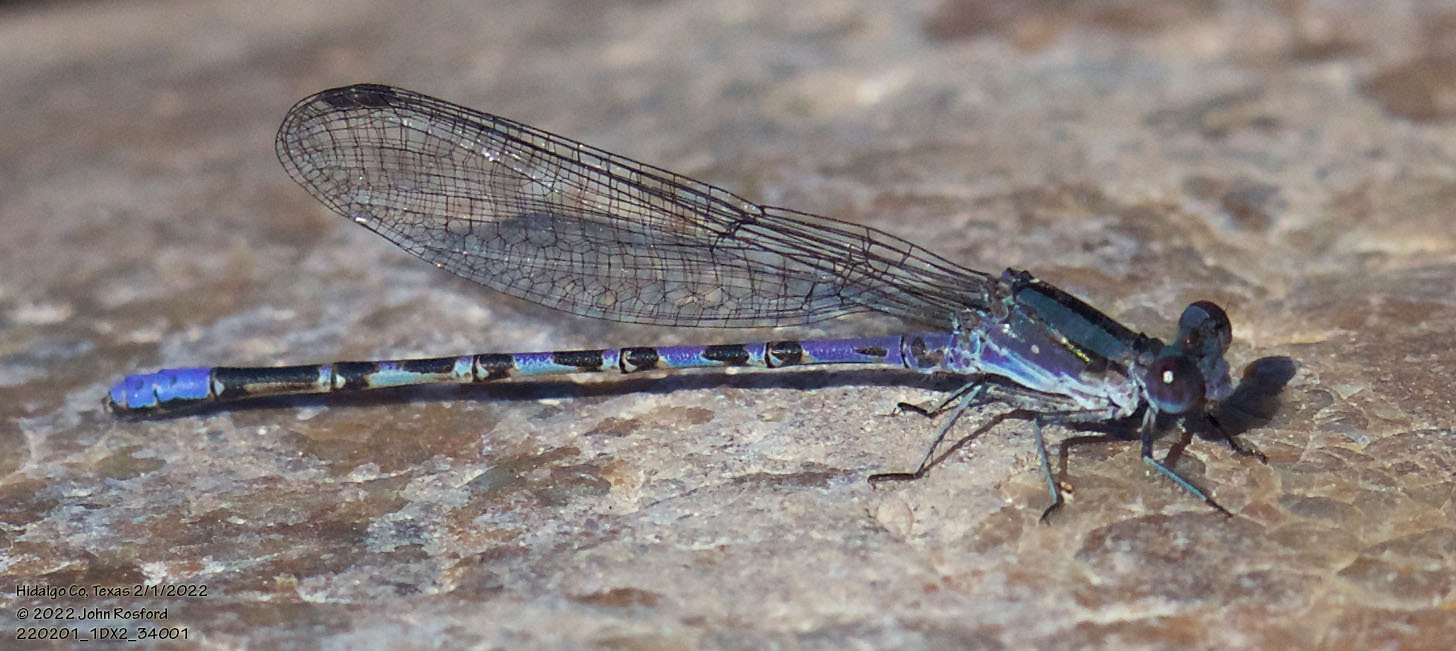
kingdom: Animalia
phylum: Arthropoda
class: Insecta
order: Odonata
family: Coenagrionidae
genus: Argia
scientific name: Argia immunda
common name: Kiowa dancer
